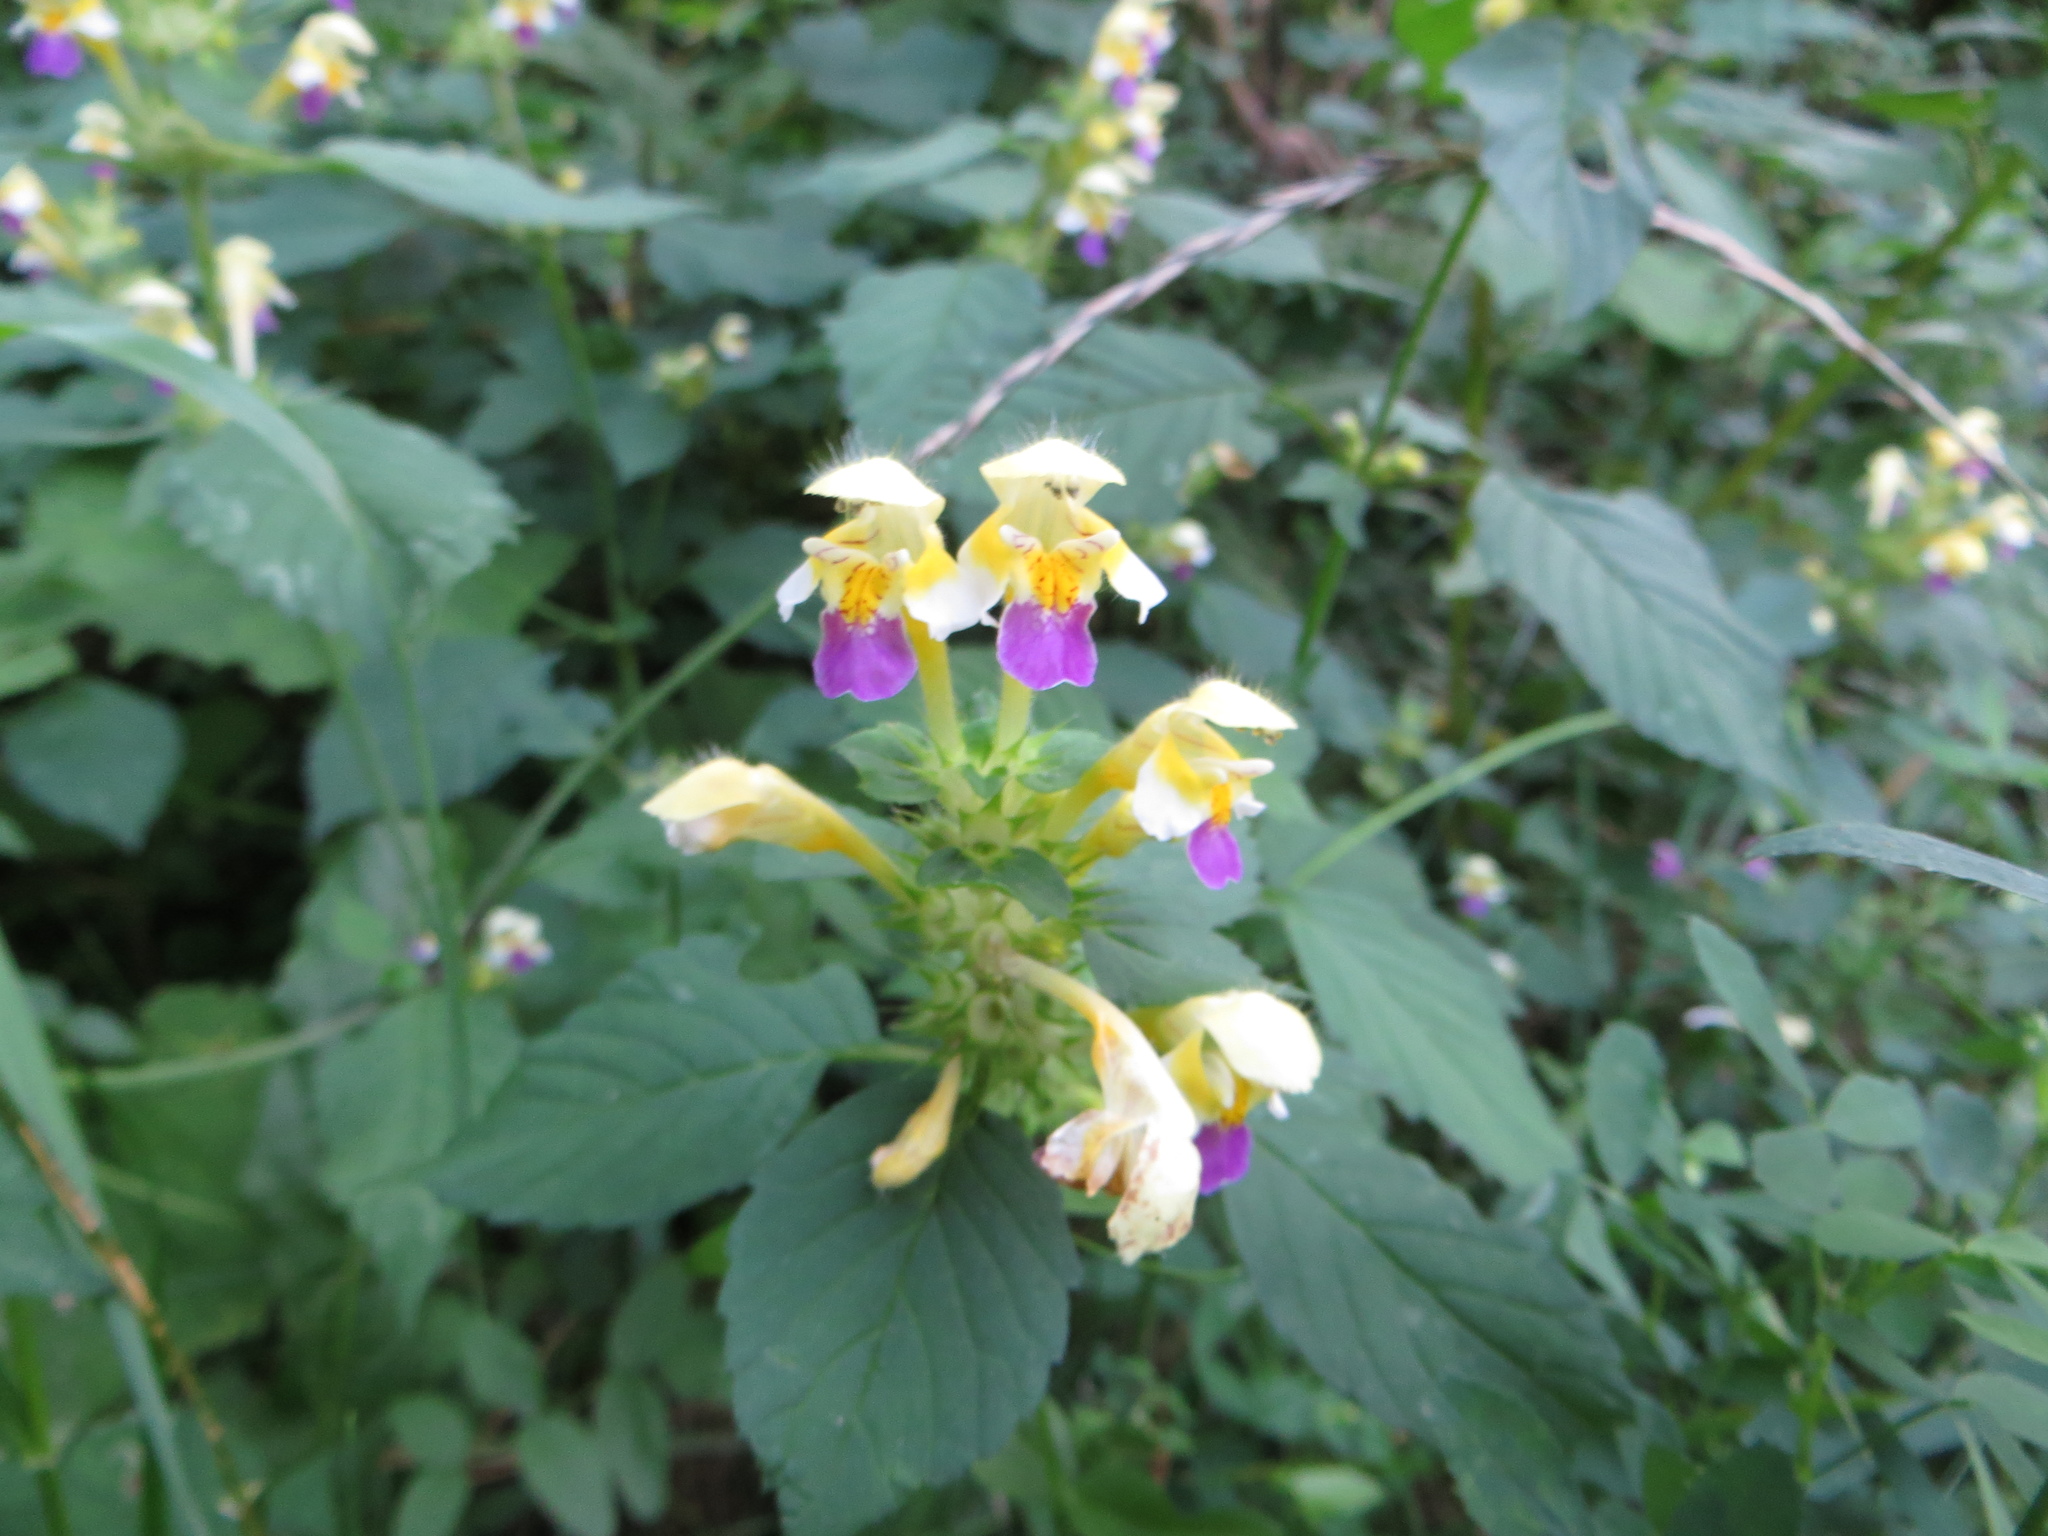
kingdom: Plantae
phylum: Tracheophyta
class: Magnoliopsida
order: Lamiales
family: Lamiaceae
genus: Galeopsis
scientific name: Galeopsis speciosa
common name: Large-flowered hemp-nettle
